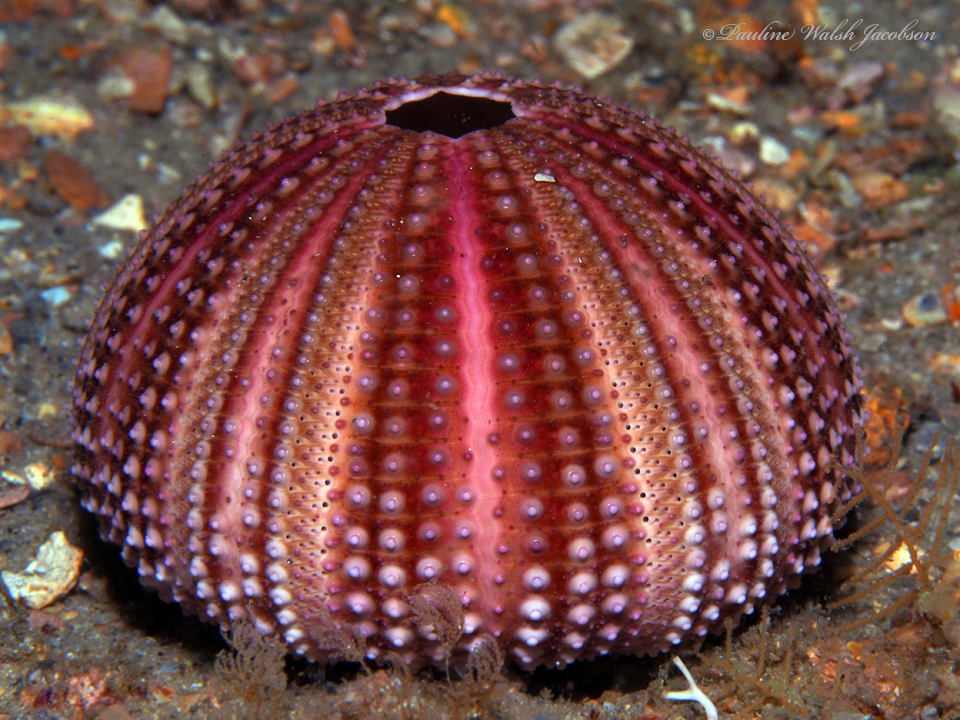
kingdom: Animalia
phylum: Echinodermata
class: Echinoidea
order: Camarodonta
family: Toxopneustidae
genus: Lytechinus
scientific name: Lytechinus variegatus
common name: Variegated urchin
